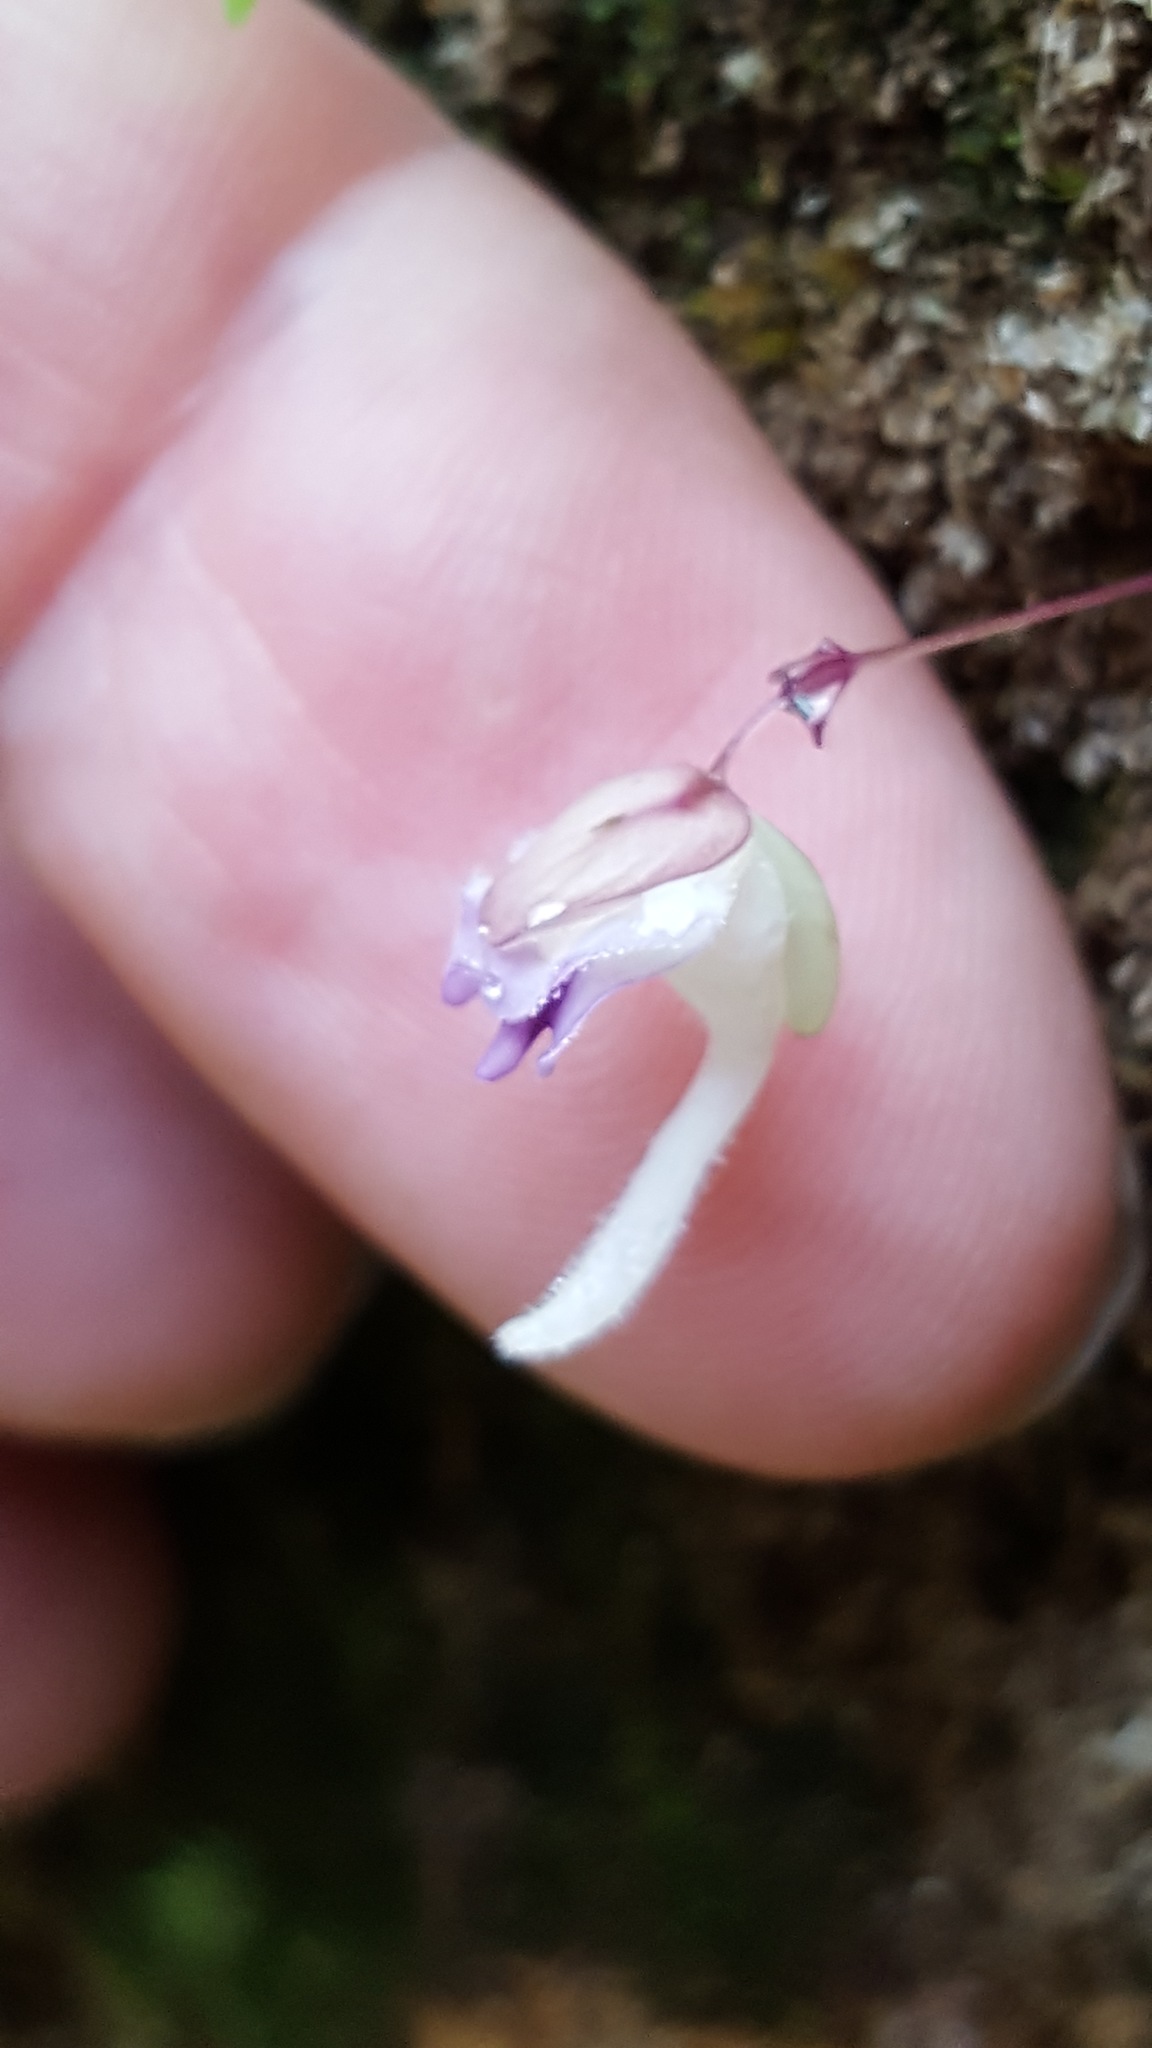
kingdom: Plantae
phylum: Tracheophyta
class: Magnoliopsida
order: Lamiales
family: Lentibulariaceae
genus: Utricularia
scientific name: Utricularia jamesoniana
